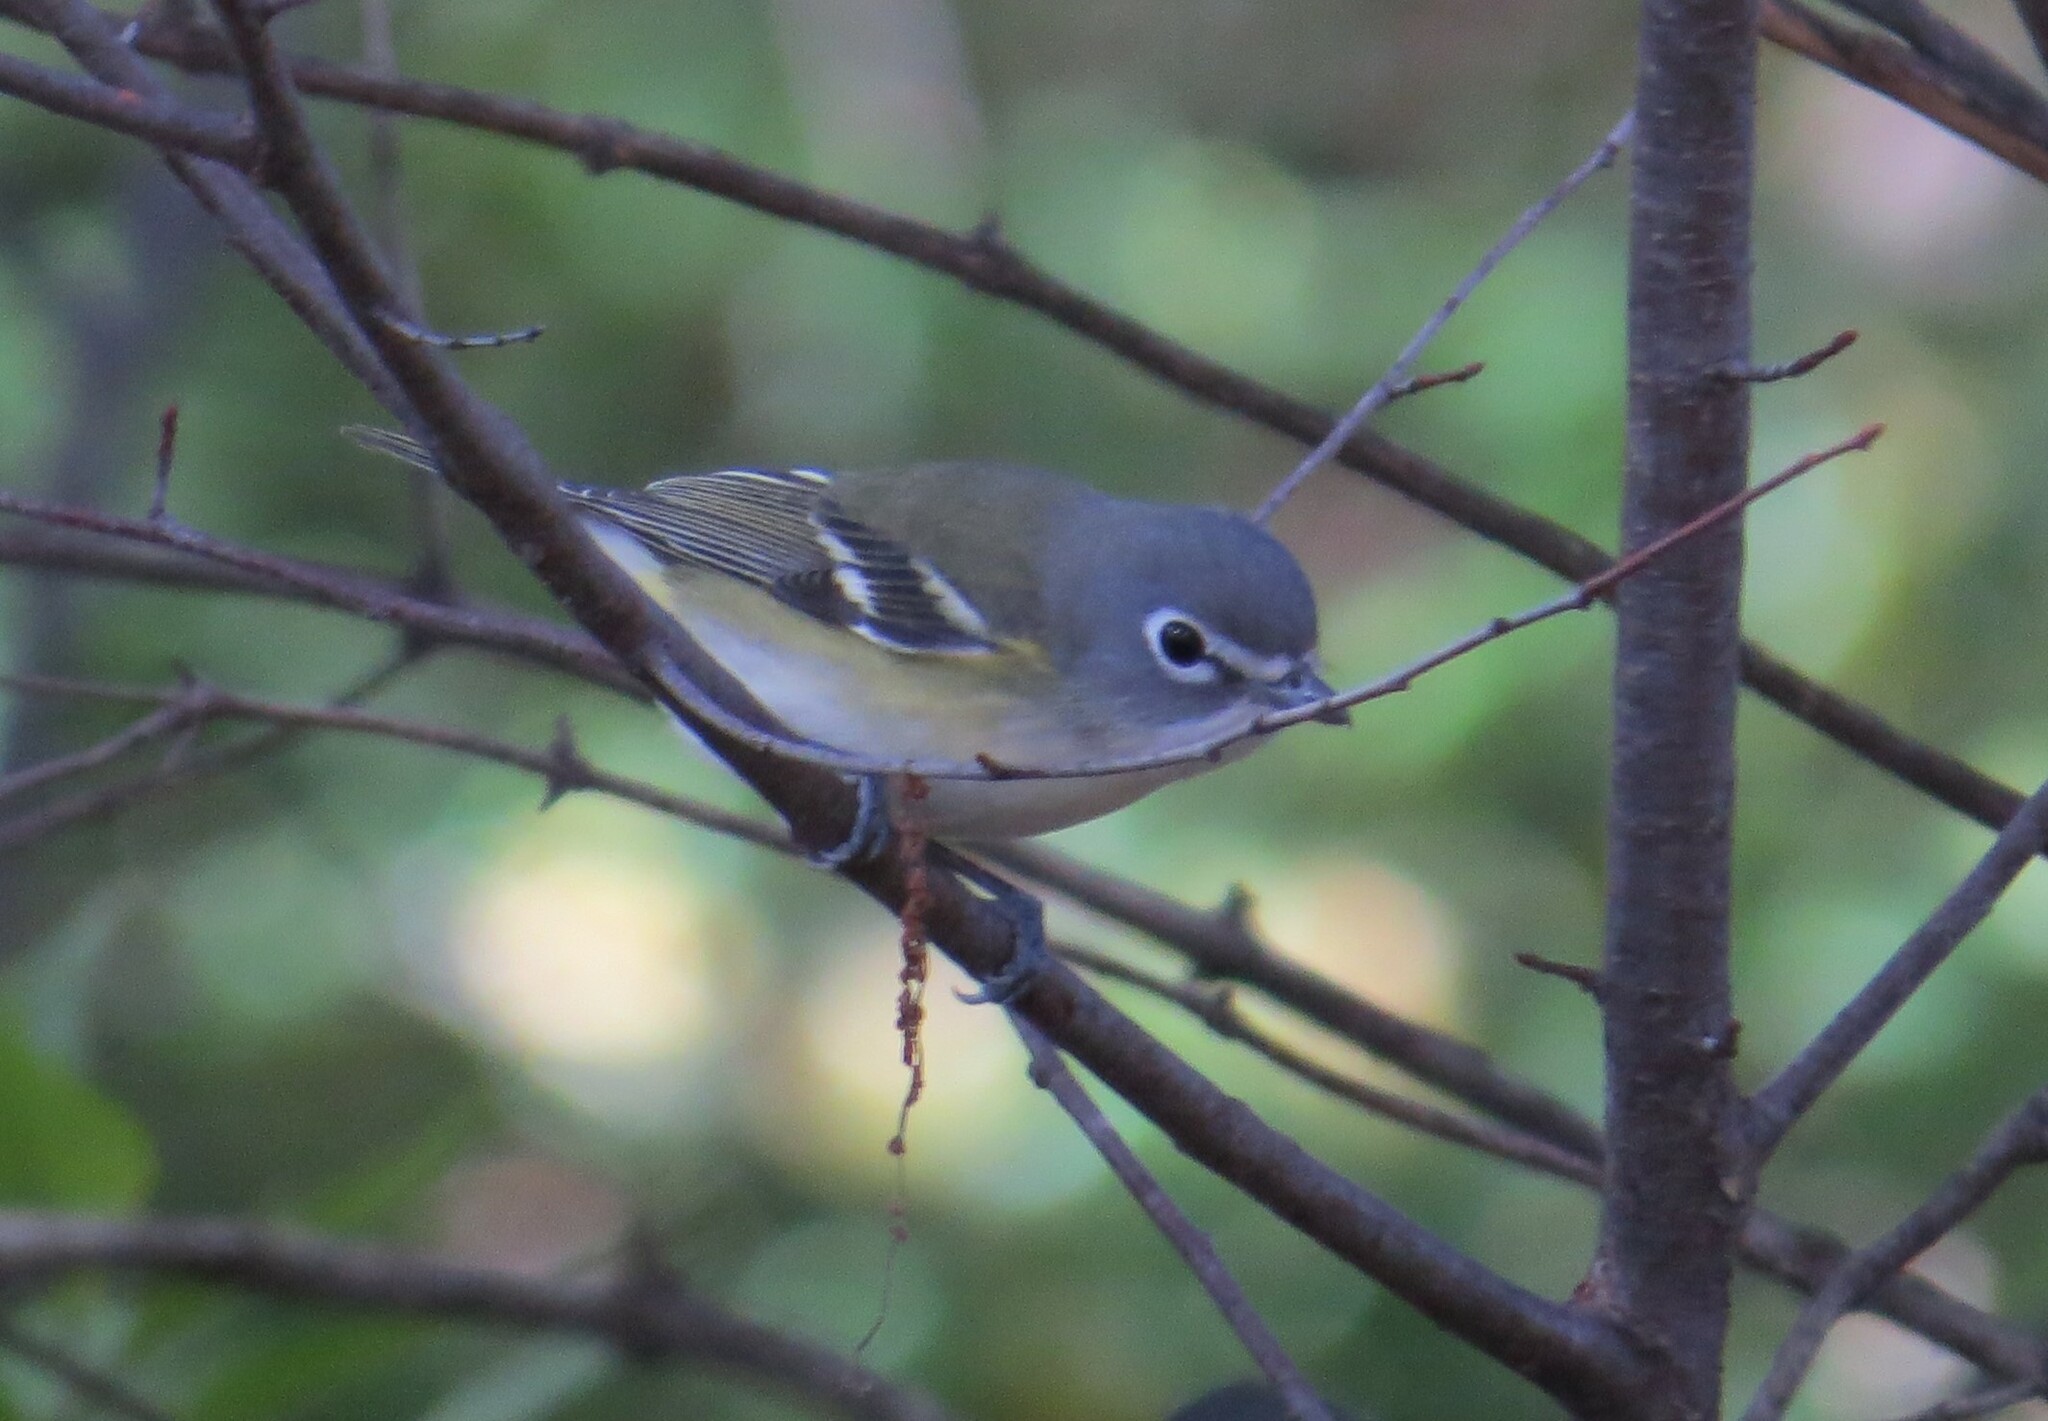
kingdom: Animalia
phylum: Chordata
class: Aves
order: Passeriformes
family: Vireonidae
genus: Vireo
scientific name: Vireo solitarius
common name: Blue-headed vireo
